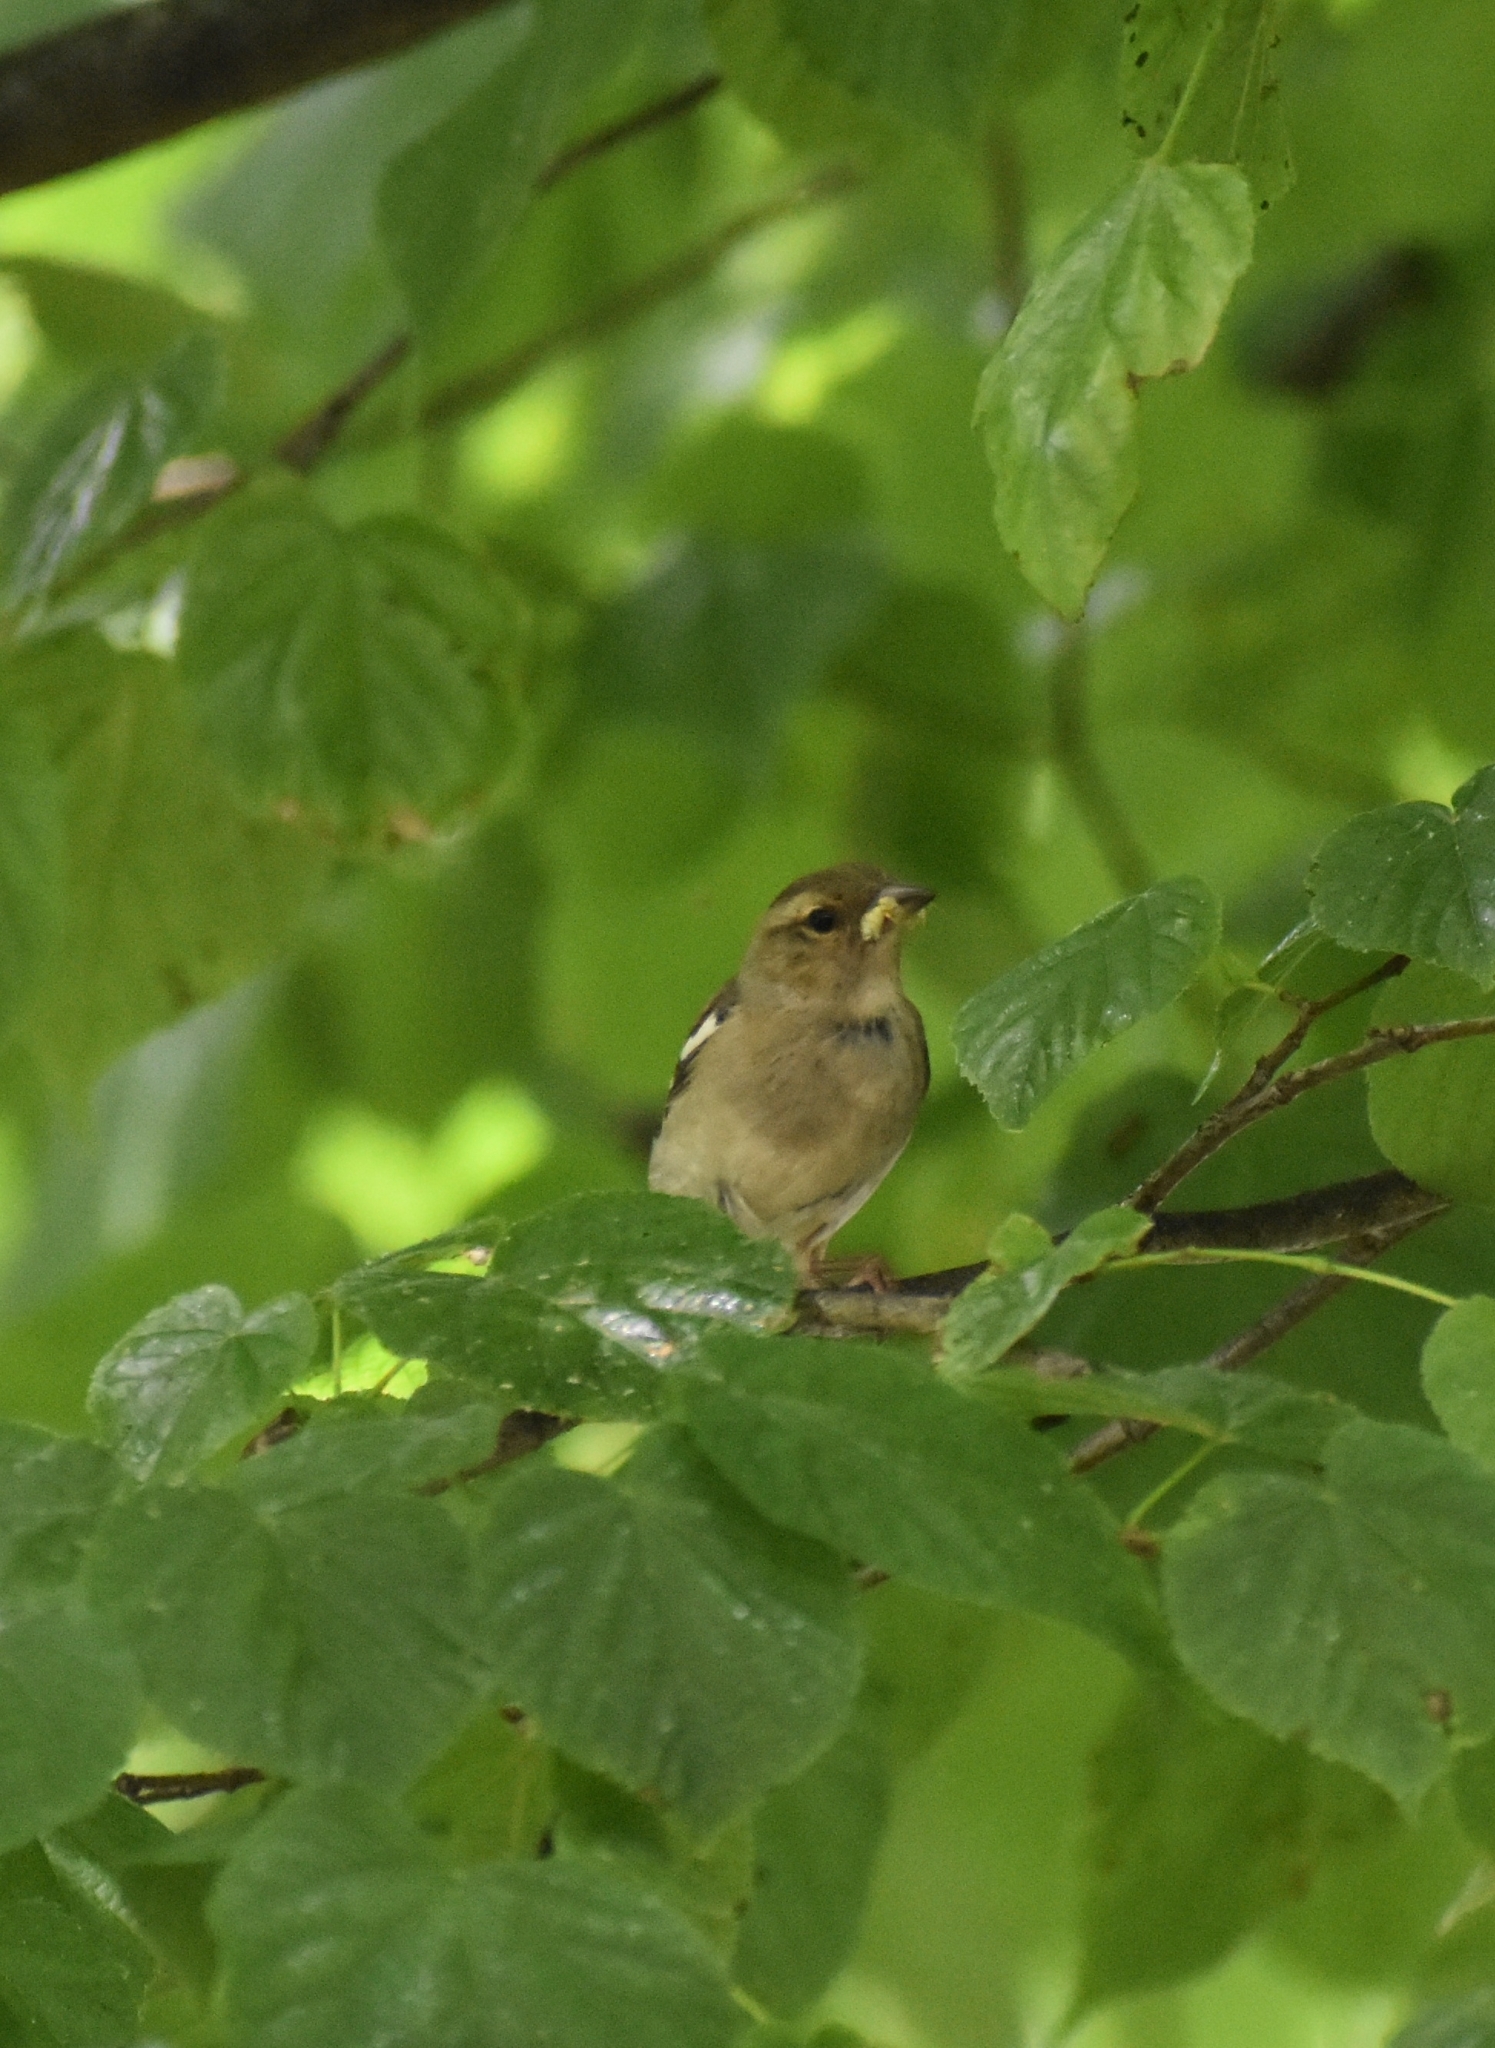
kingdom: Animalia
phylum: Chordata
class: Aves
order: Passeriformes
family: Fringillidae
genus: Fringilla
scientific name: Fringilla coelebs
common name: Common chaffinch
